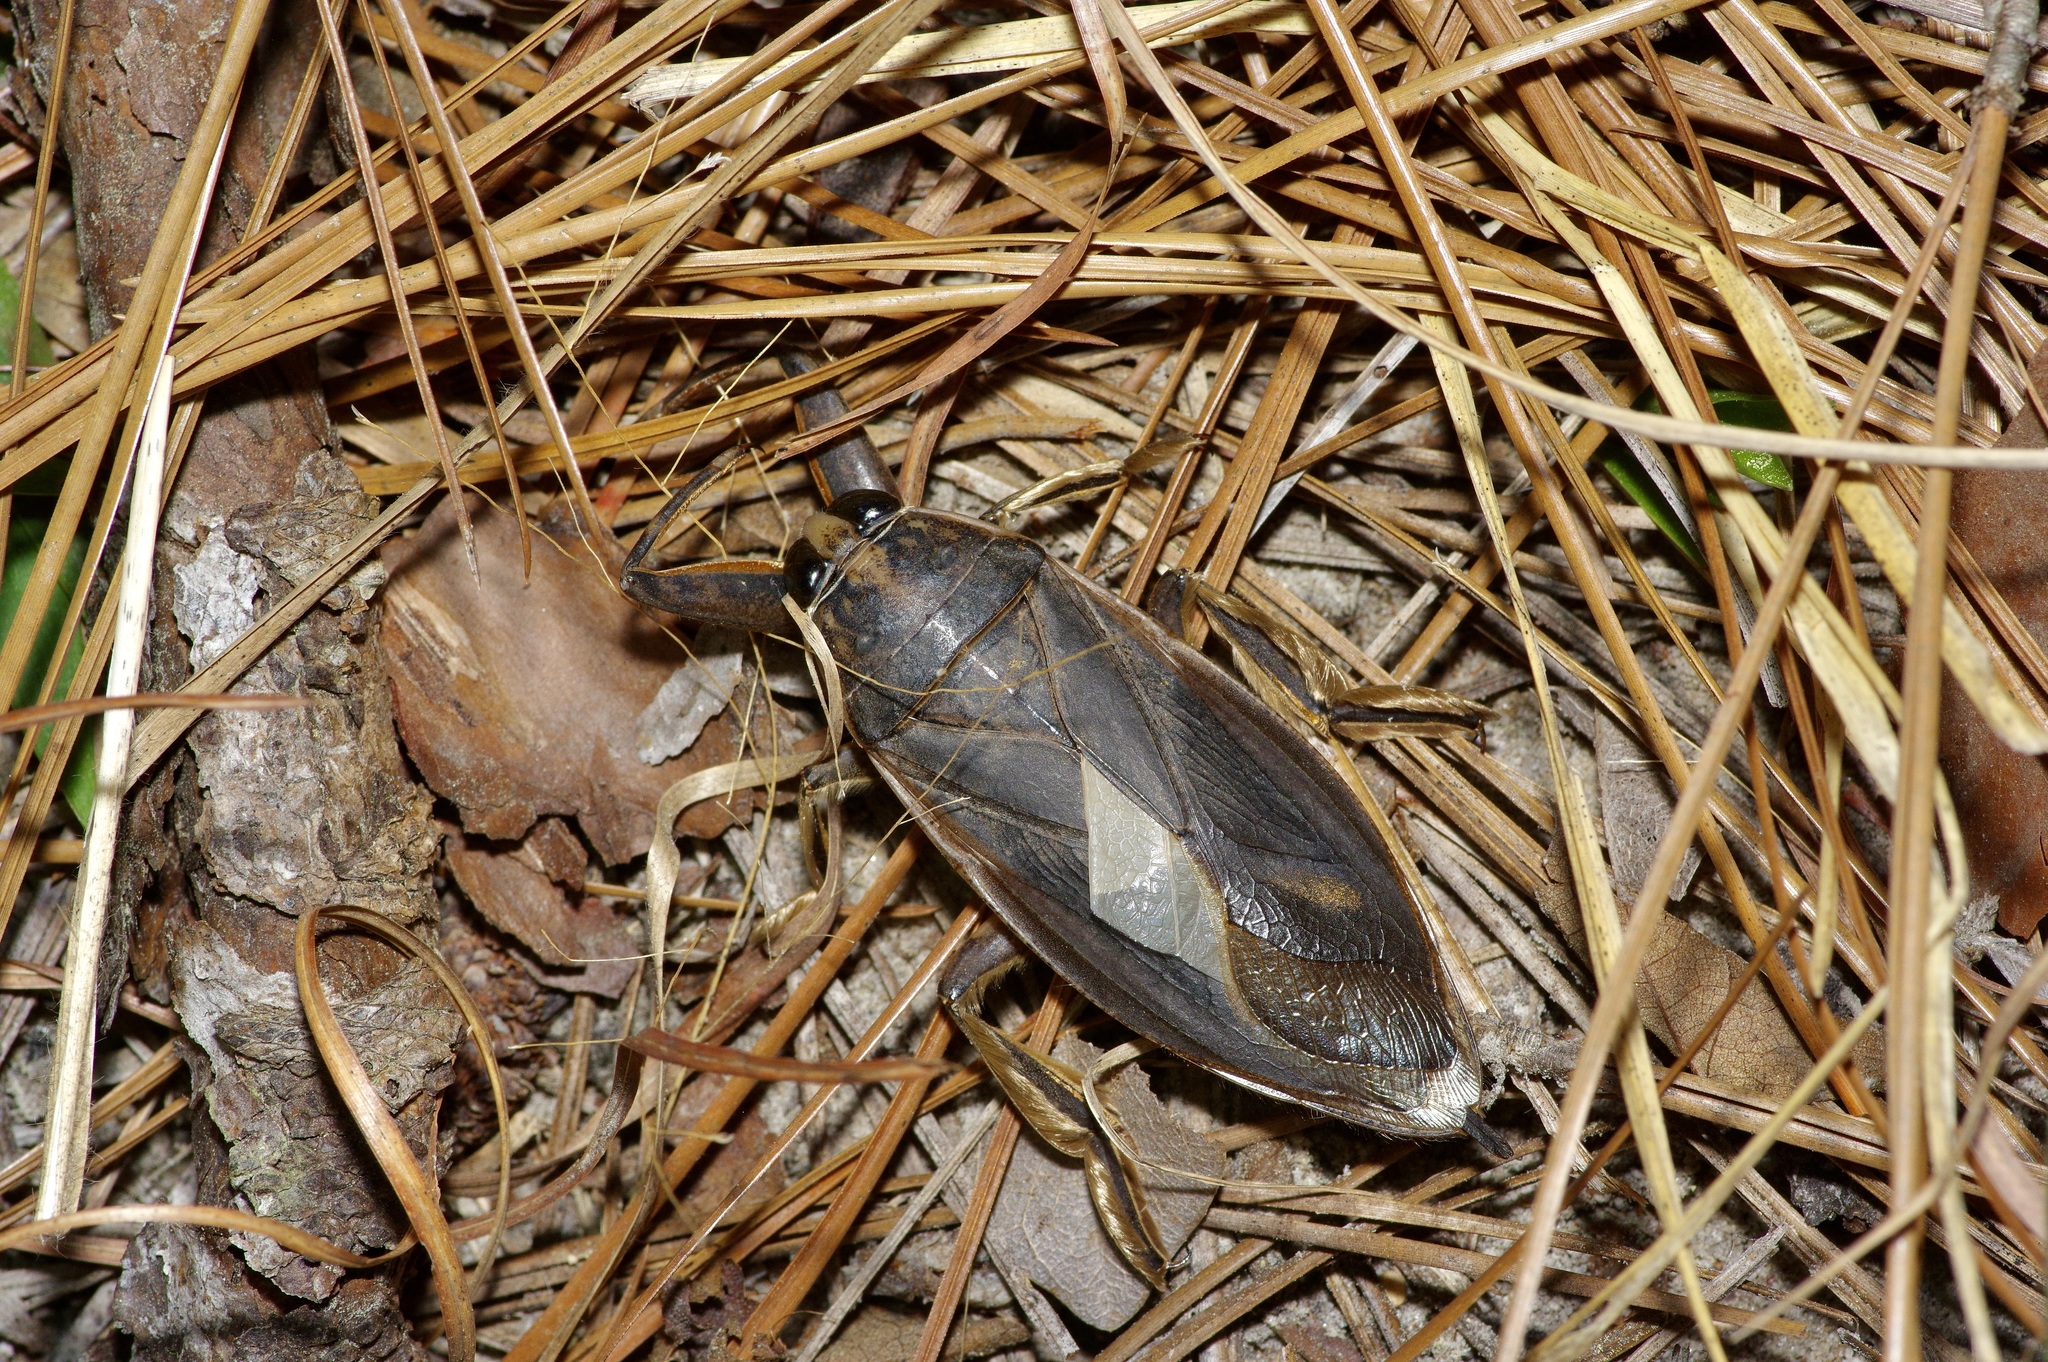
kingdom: Animalia
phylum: Arthropoda
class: Insecta
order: Hemiptera
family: Belostomatidae
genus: Benacus
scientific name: Benacus griseus
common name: Eastern toe-biter
